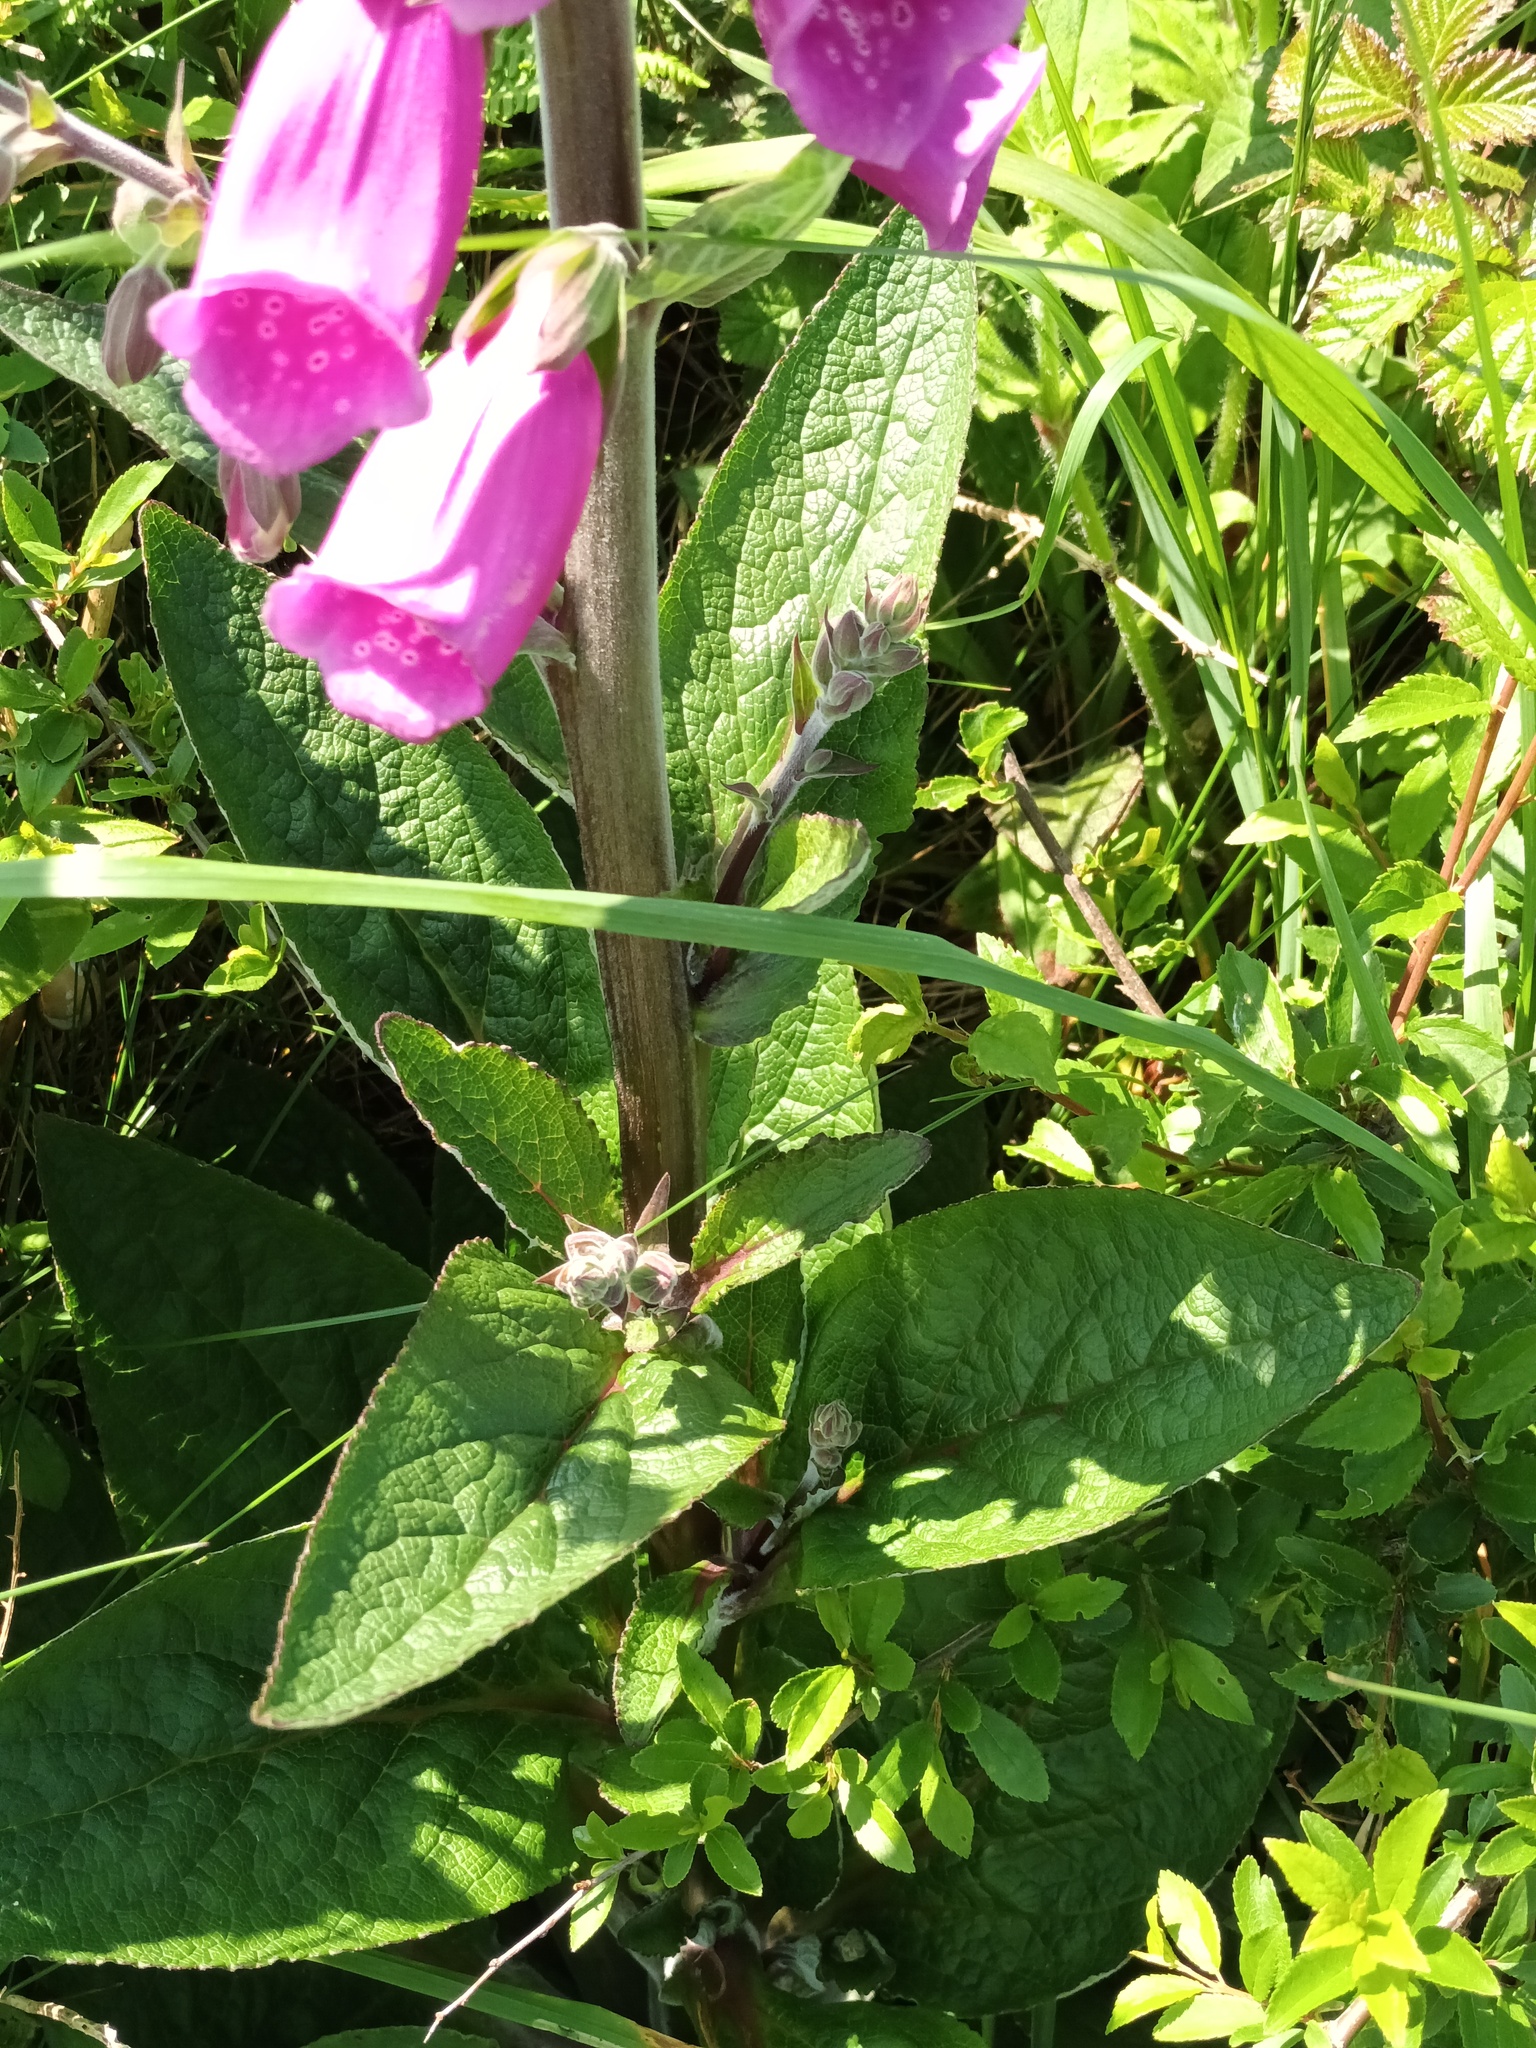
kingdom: Plantae
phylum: Tracheophyta
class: Magnoliopsida
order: Lamiales
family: Plantaginaceae
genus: Digitalis
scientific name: Digitalis purpurea
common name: Foxglove
